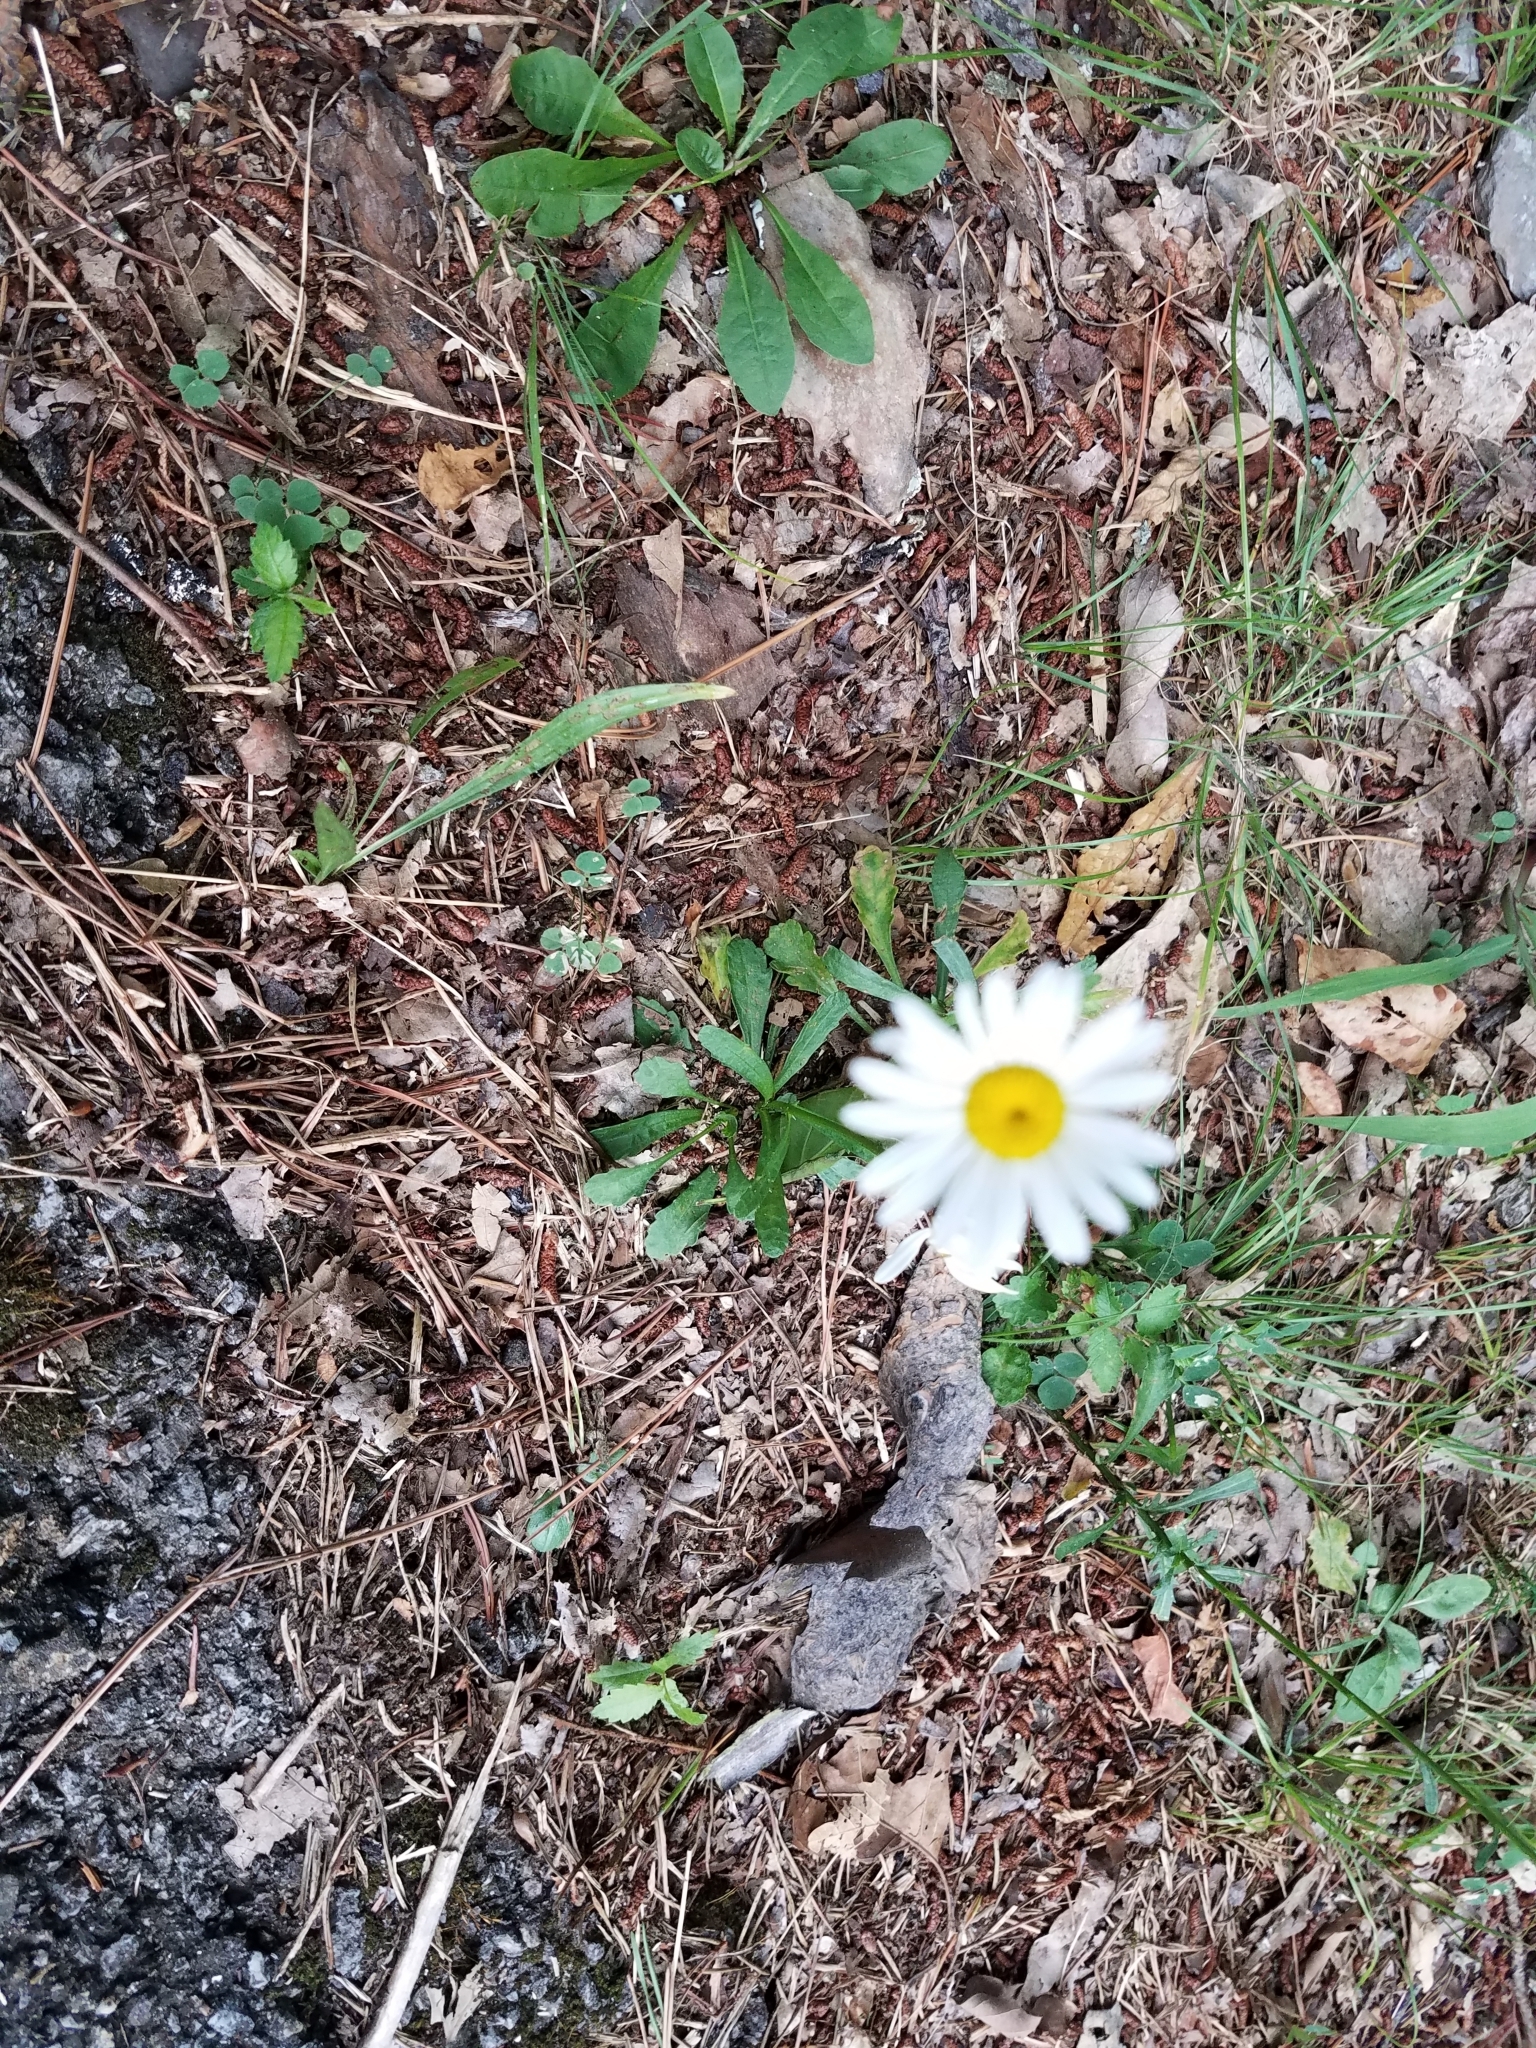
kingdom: Plantae
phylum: Tracheophyta
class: Magnoliopsida
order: Asterales
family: Asteraceae
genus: Leucanthemum
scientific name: Leucanthemum vulgare
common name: Oxeye daisy
